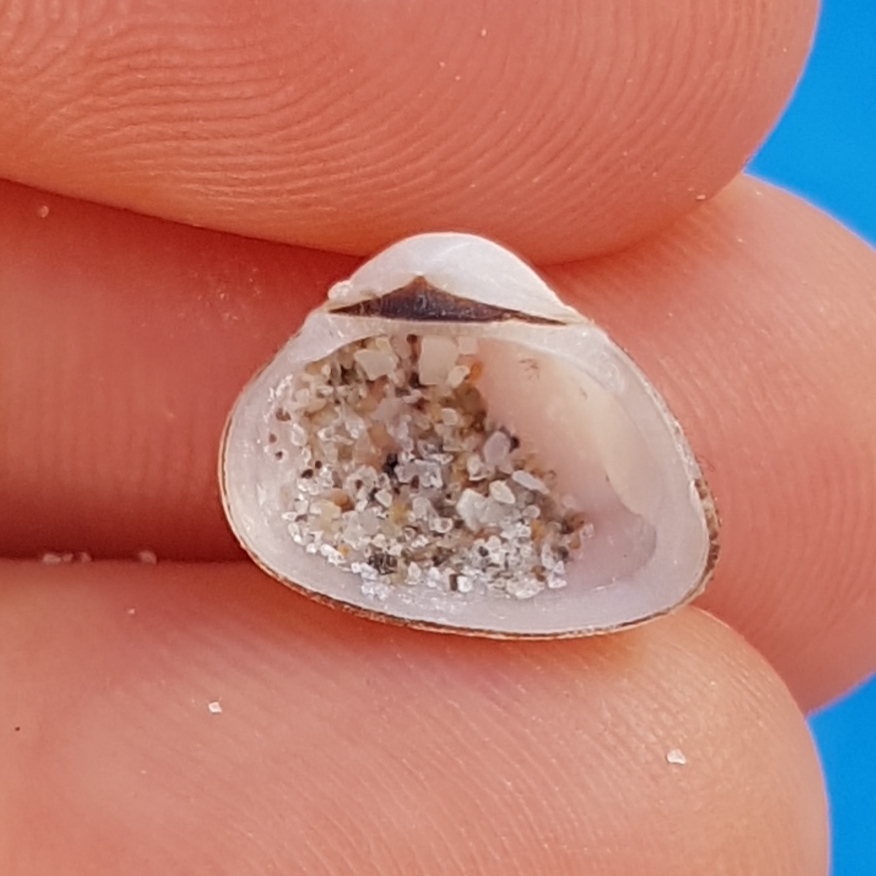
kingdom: Animalia
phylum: Mollusca
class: Bivalvia
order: Arcida
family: Noetiidae
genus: Striarca
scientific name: Striarca lactea
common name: Milky-white ark
